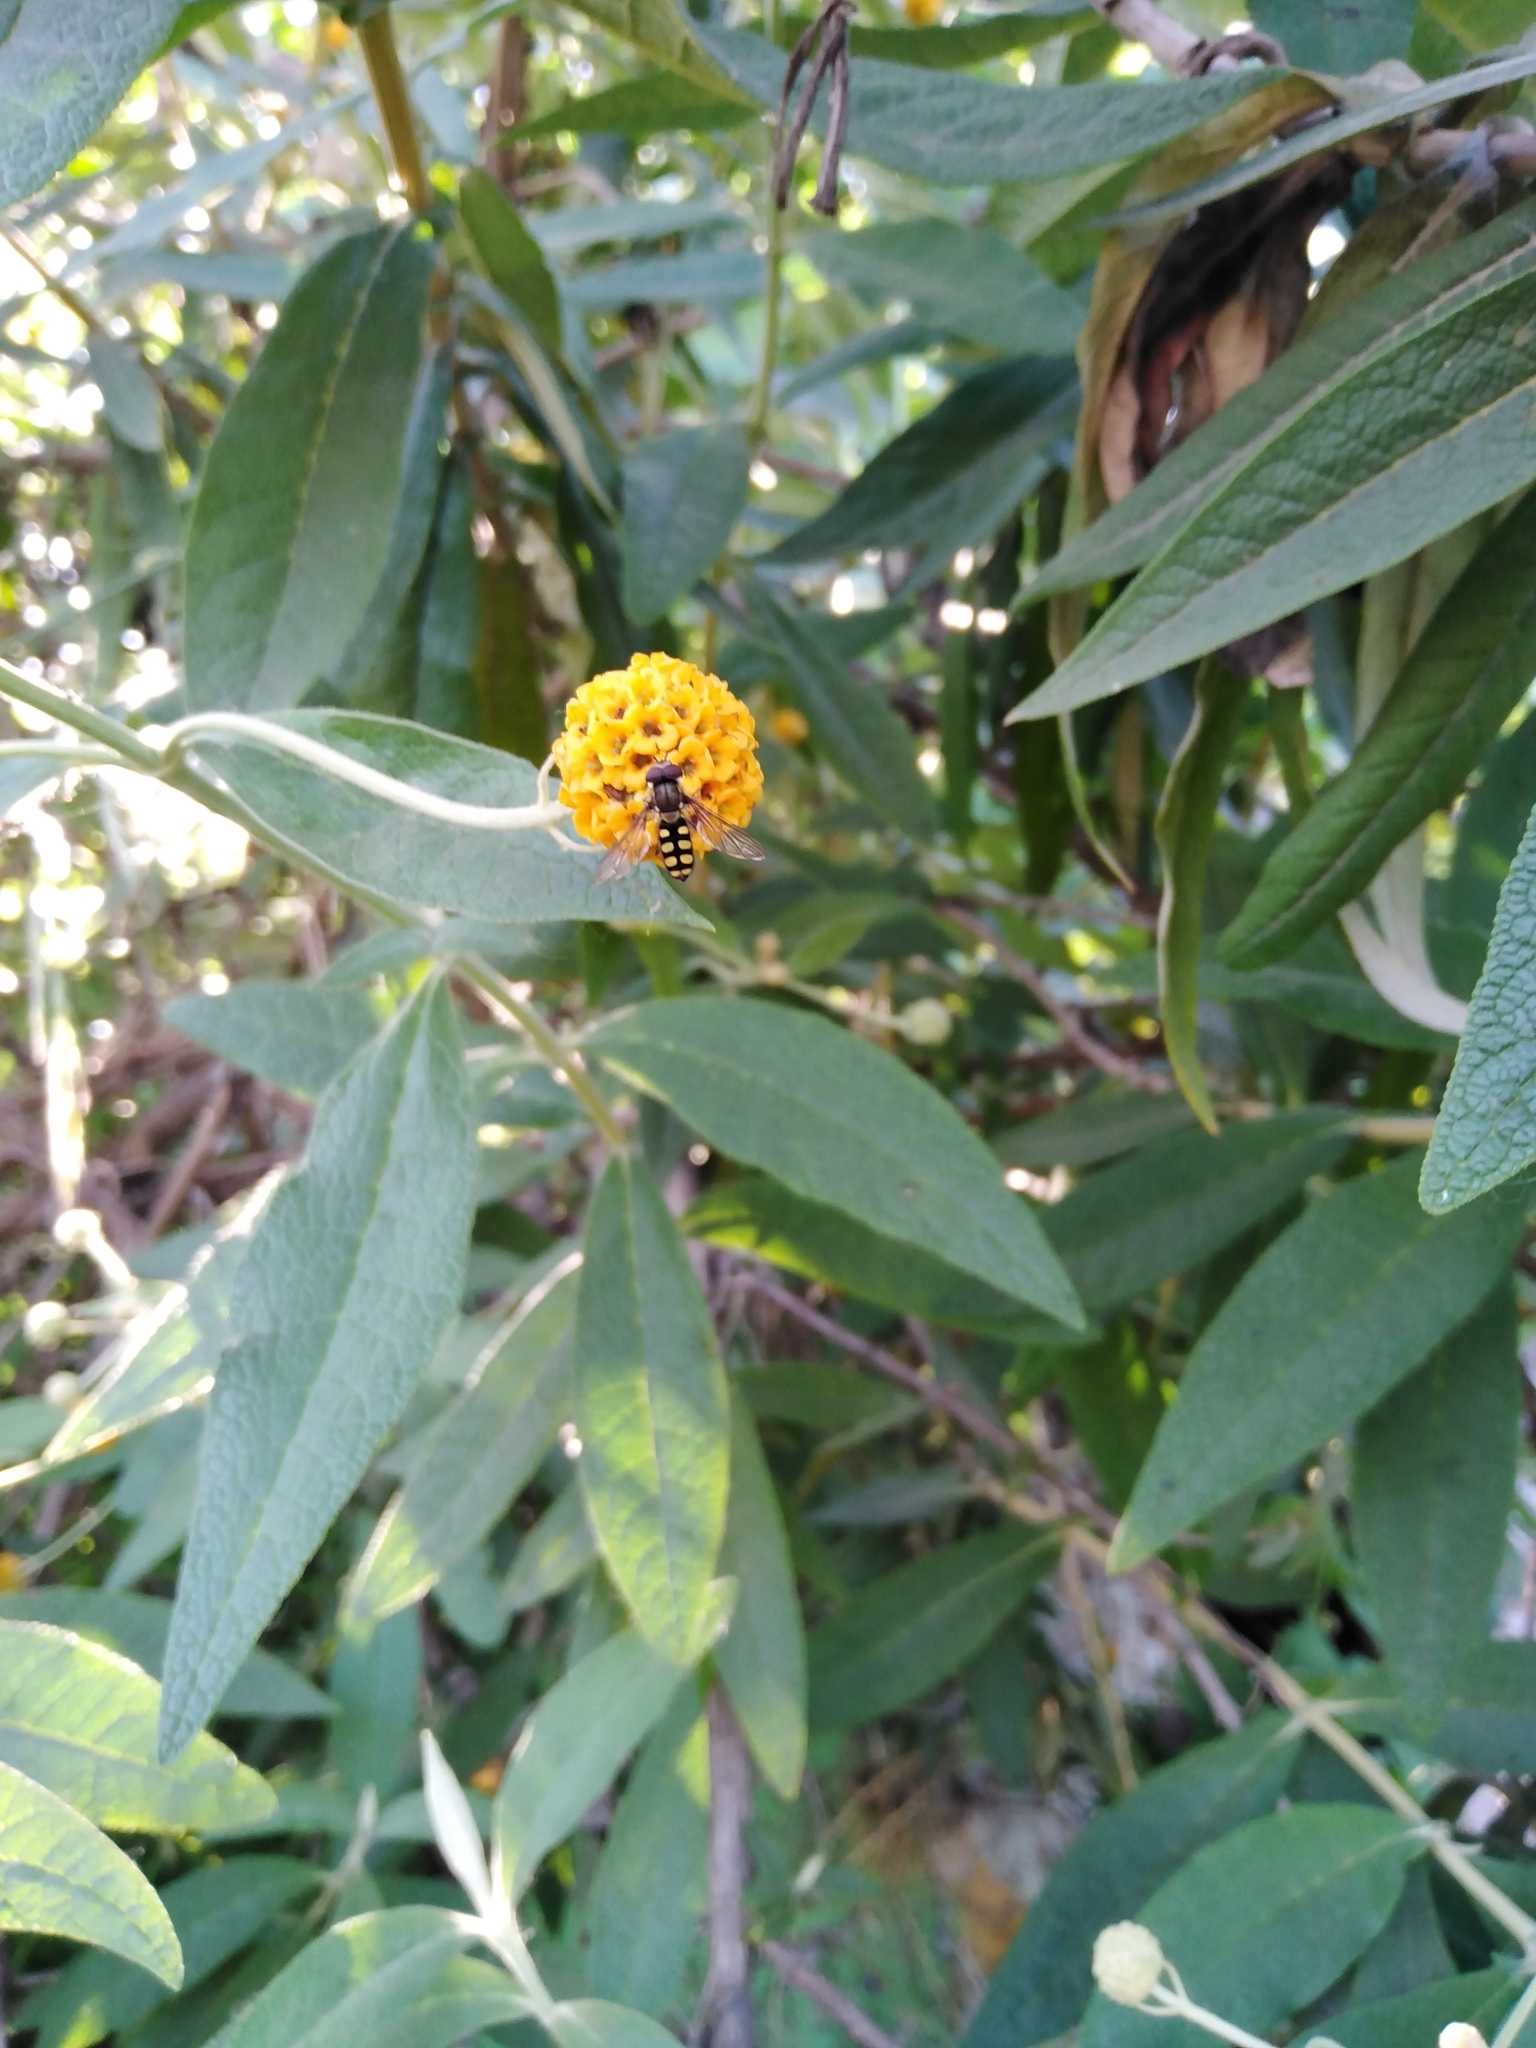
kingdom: Animalia
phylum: Arthropoda
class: Insecta
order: Diptera
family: Syrphidae
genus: Fazia
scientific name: Fazia decemmaculata
